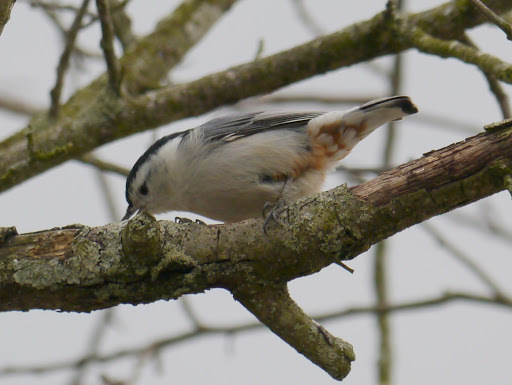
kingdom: Animalia
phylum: Chordata
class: Aves
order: Passeriformes
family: Sittidae
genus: Sitta
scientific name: Sitta carolinensis
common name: White-breasted nuthatch
